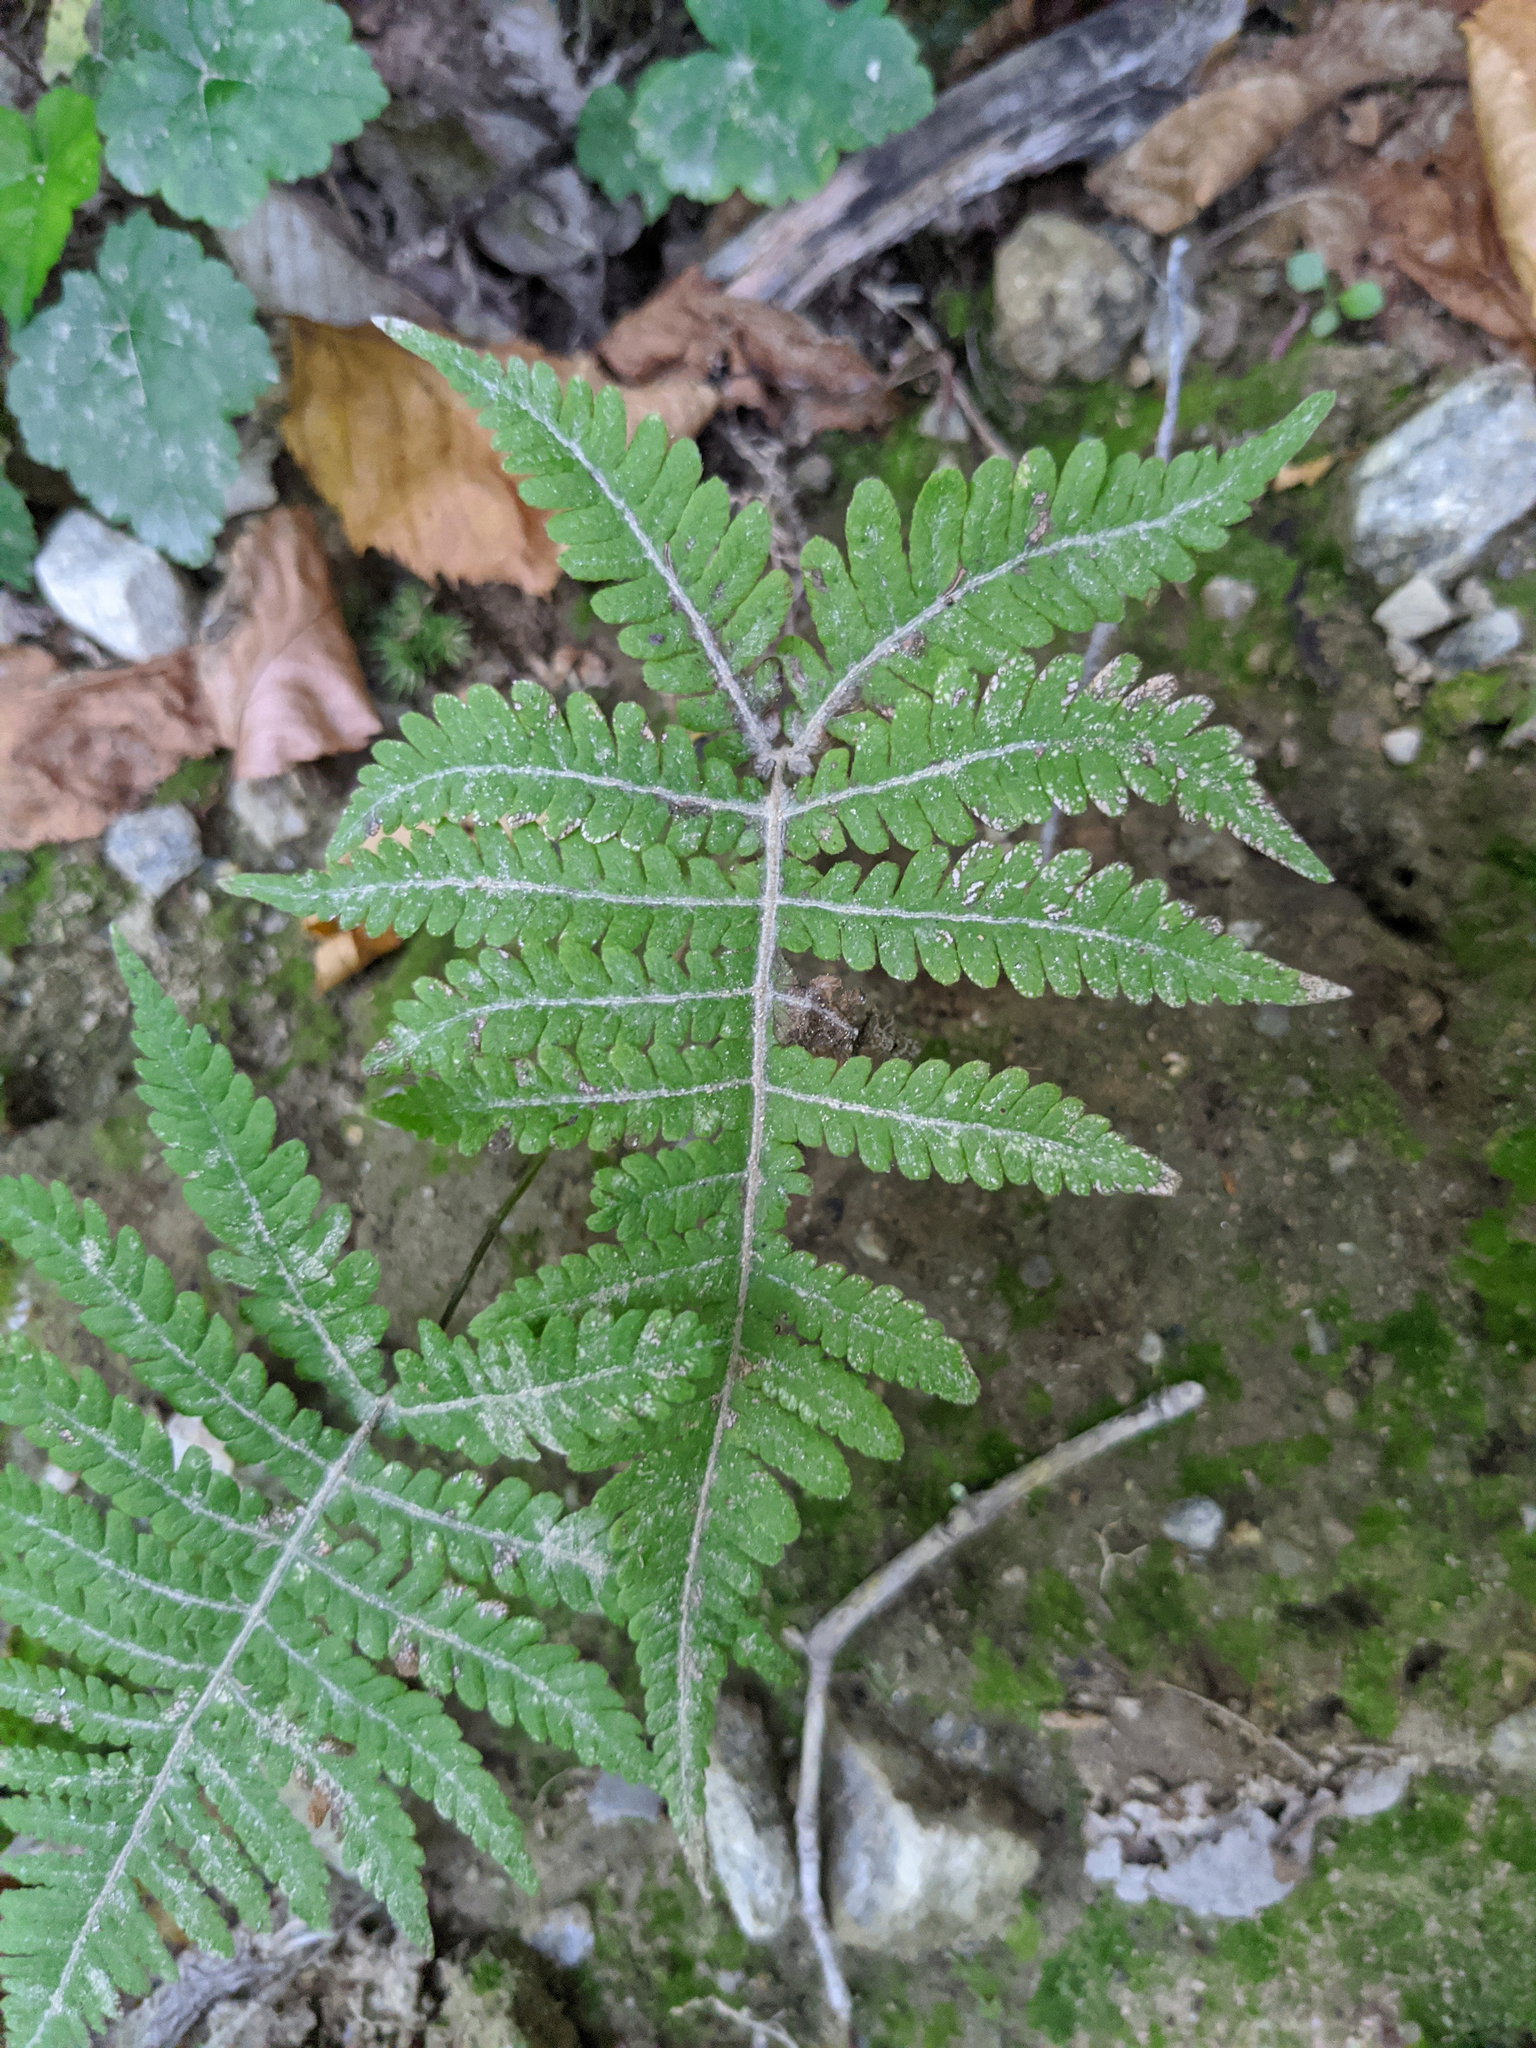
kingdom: Plantae
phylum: Tracheophyta
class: Polypodiopsida
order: Polypodiales
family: Thelypteridaceae
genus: Phegopteris
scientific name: Phegopteris connectilis
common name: Beech fern
